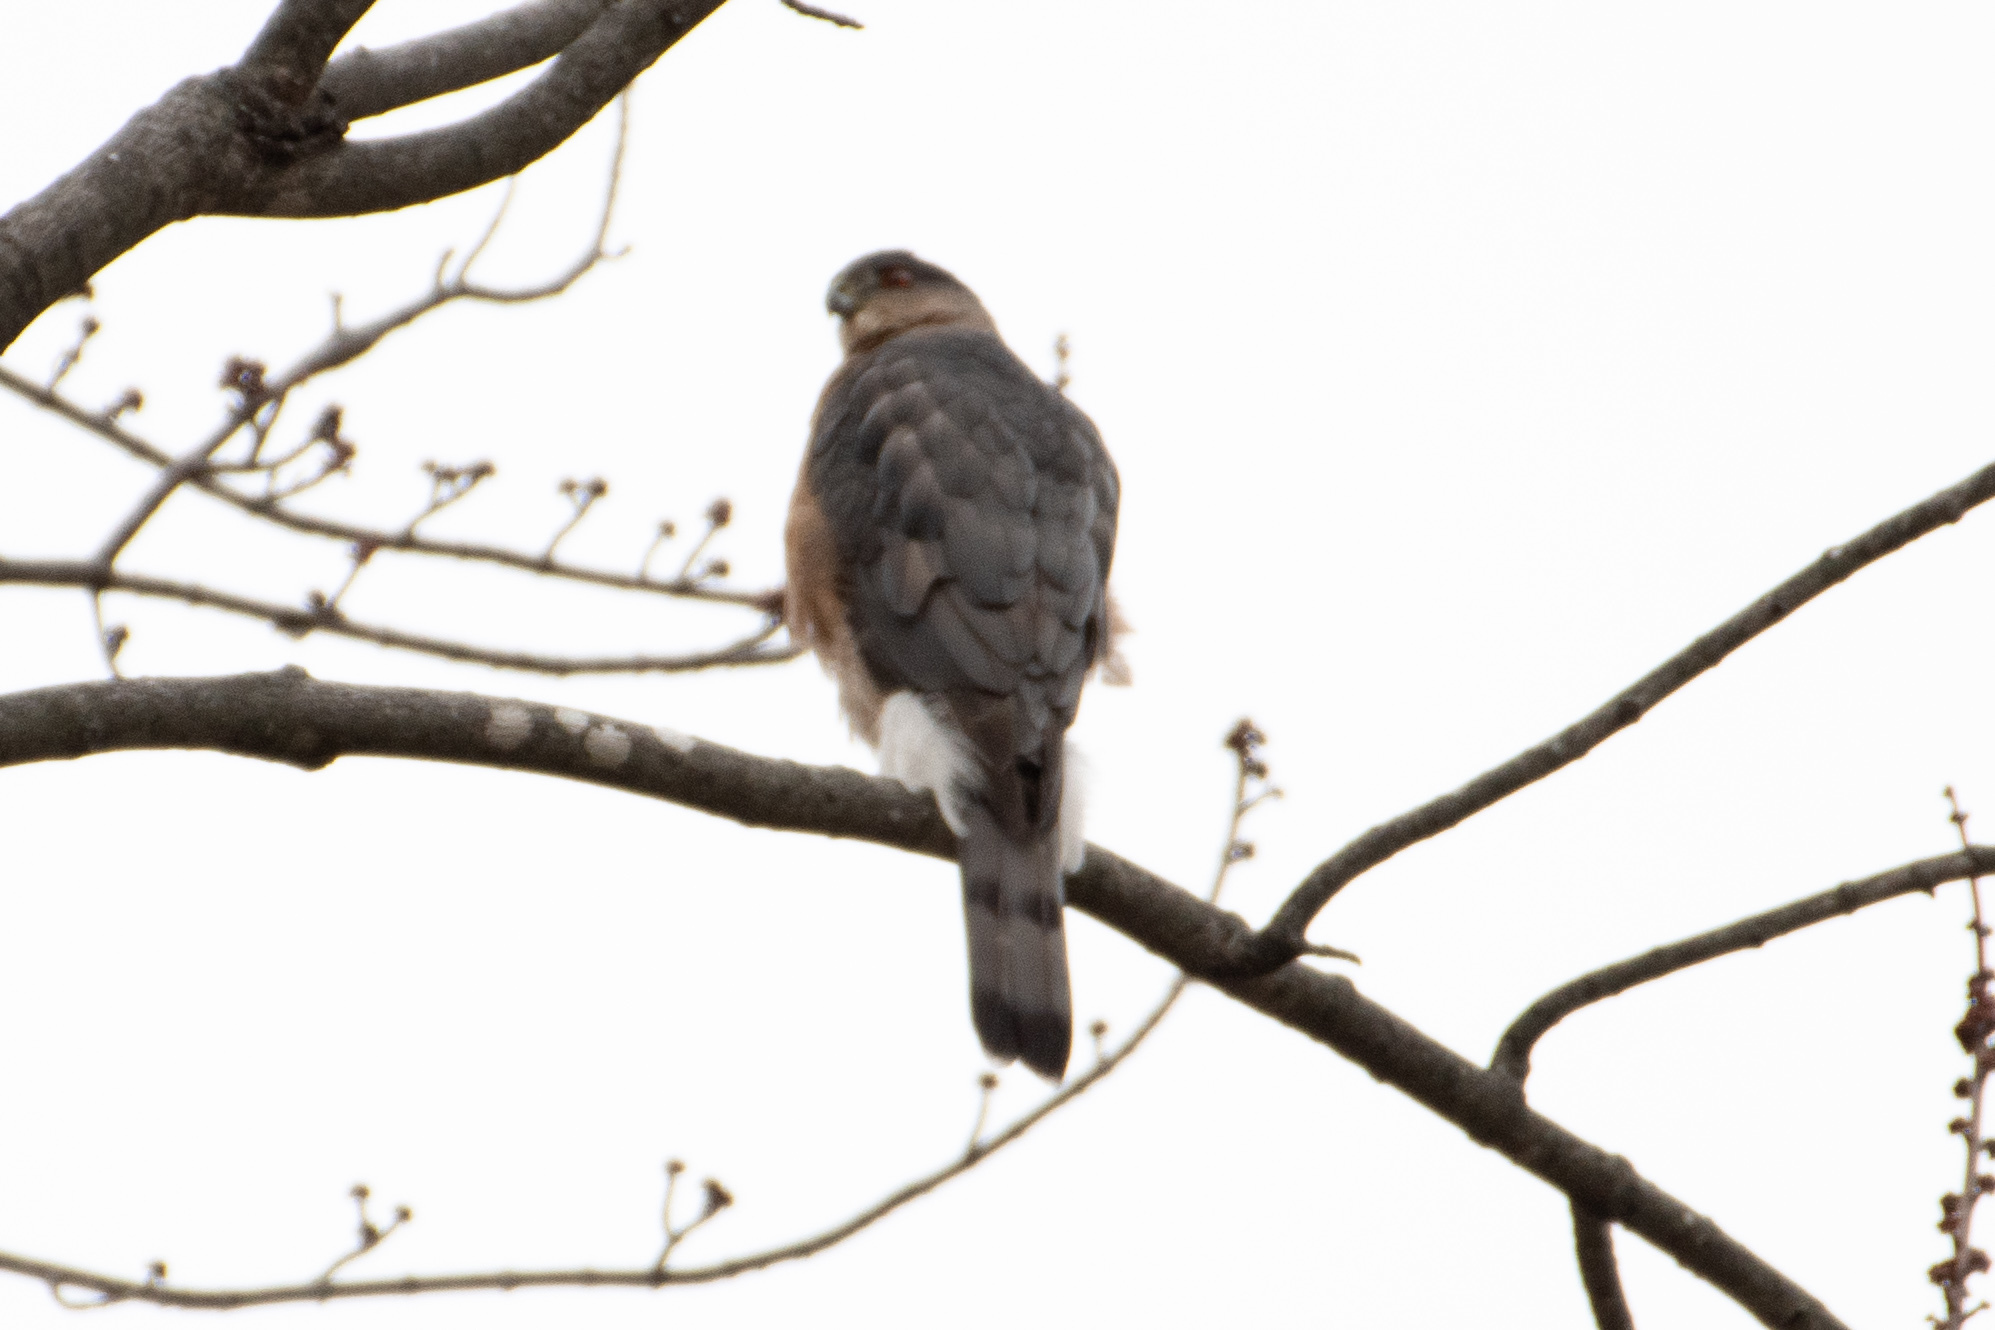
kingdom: Animalia
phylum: Chordata
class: Aves
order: Accipitriformes
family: Accipitridae
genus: Accipiter
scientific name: Accipiter cooperii
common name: Cooper's hawk
